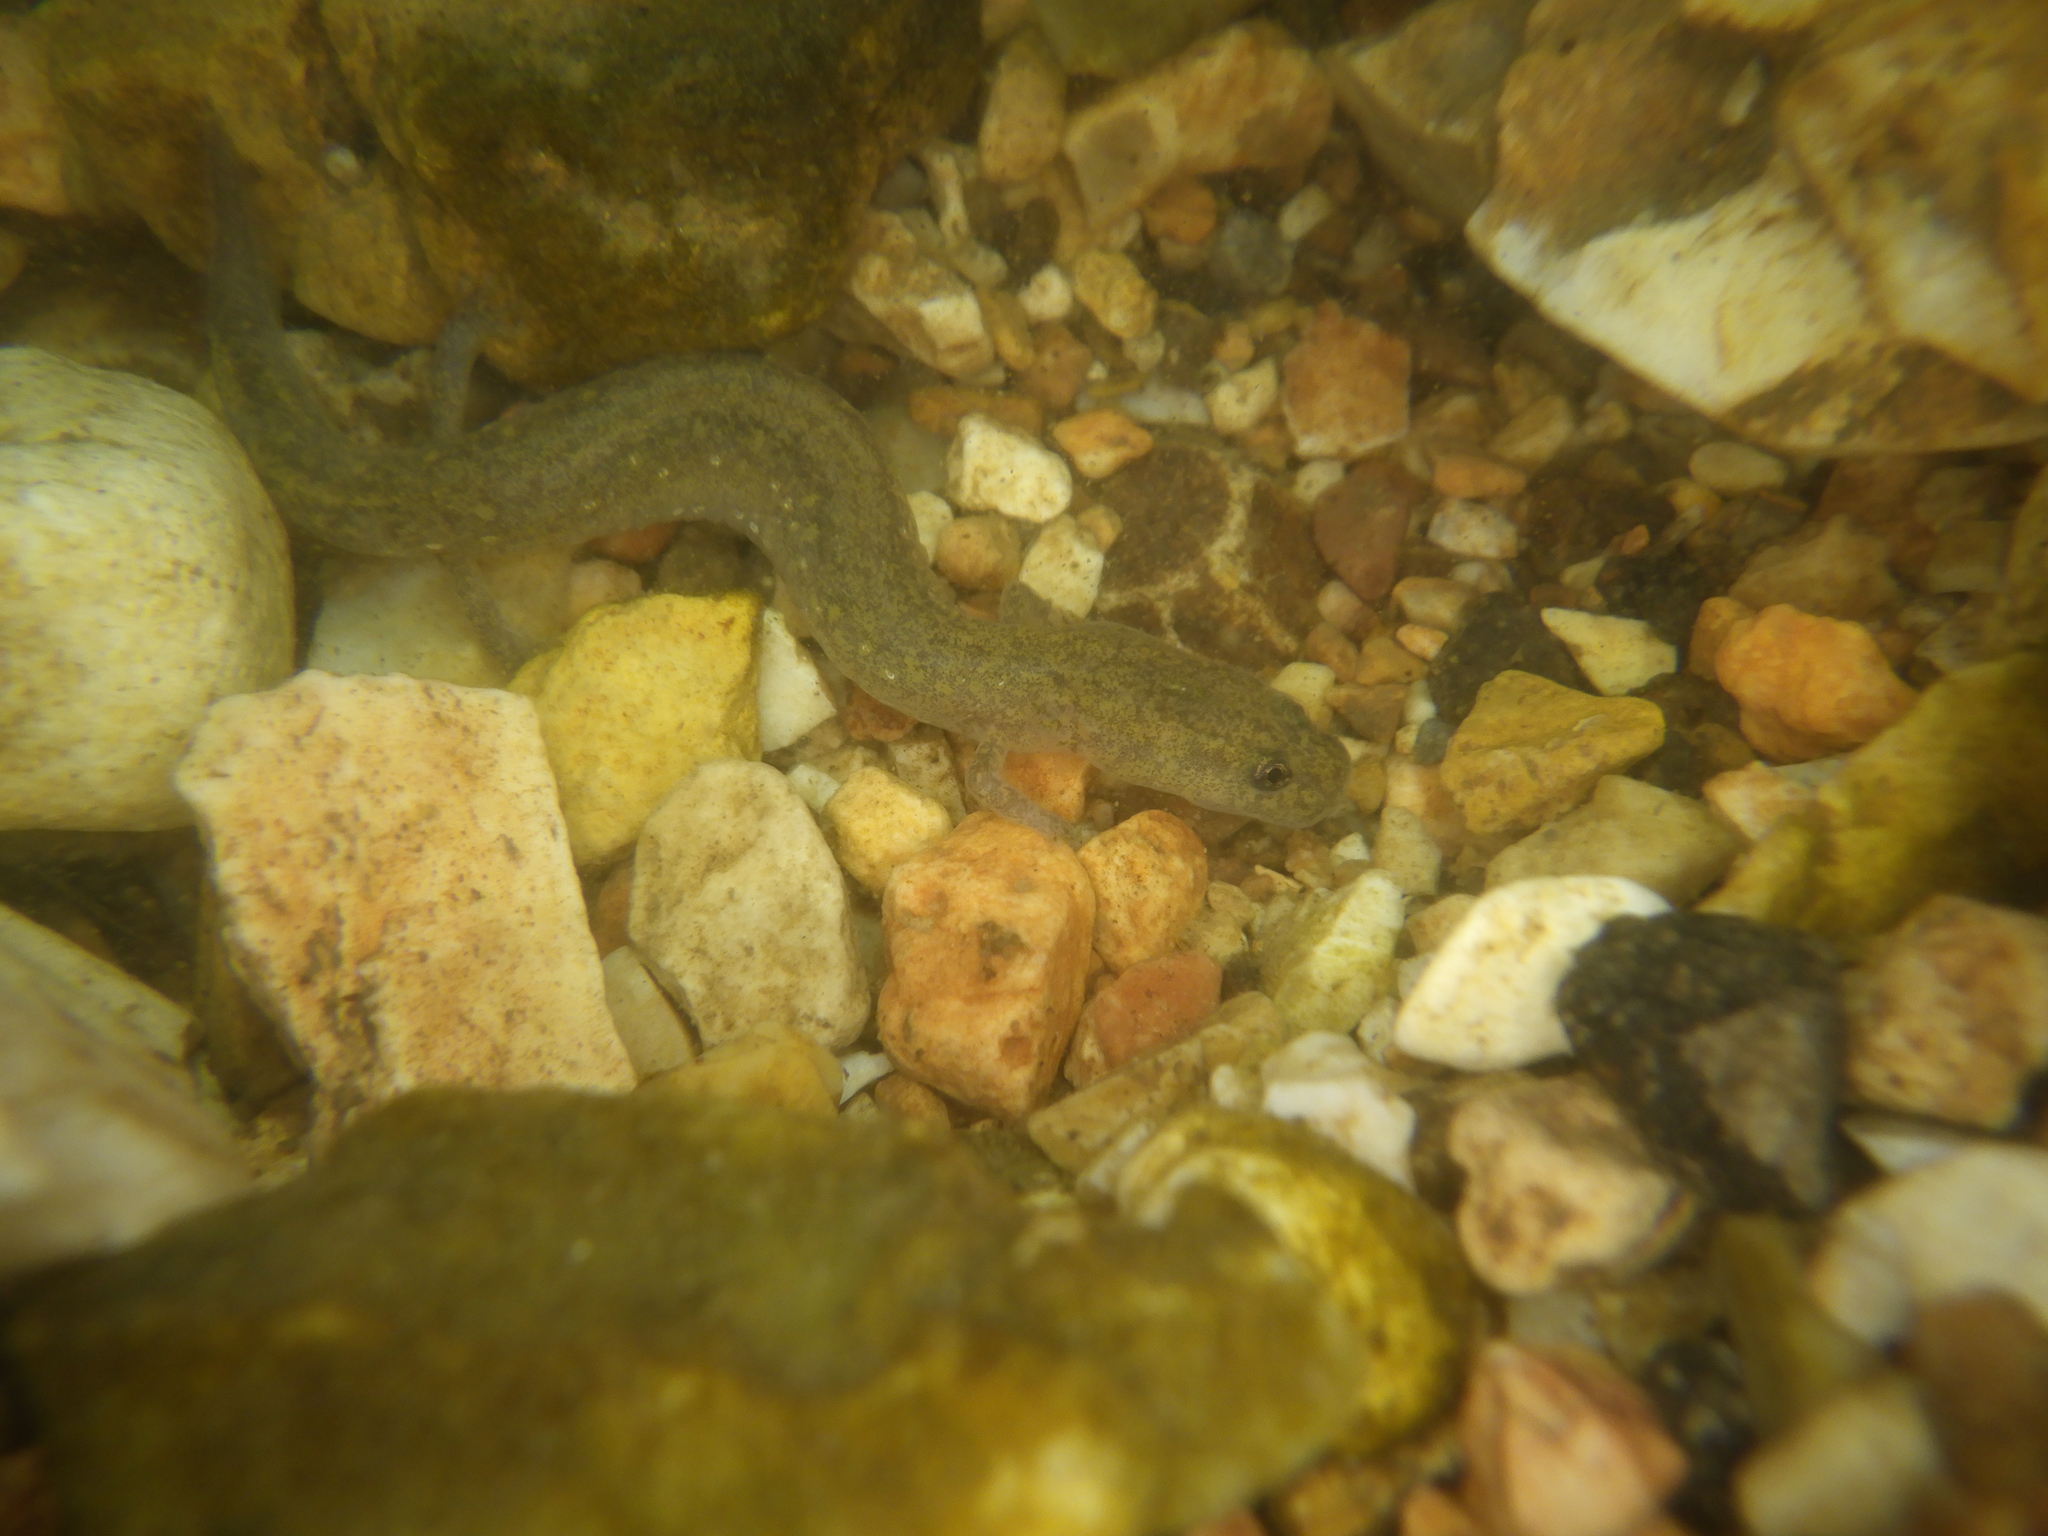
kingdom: Animalia
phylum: Chordata
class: Amphibia
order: Caudata
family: Plethodontidae
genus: Eurycea
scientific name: Eurycea tynerensis
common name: Oklahoma salamander
